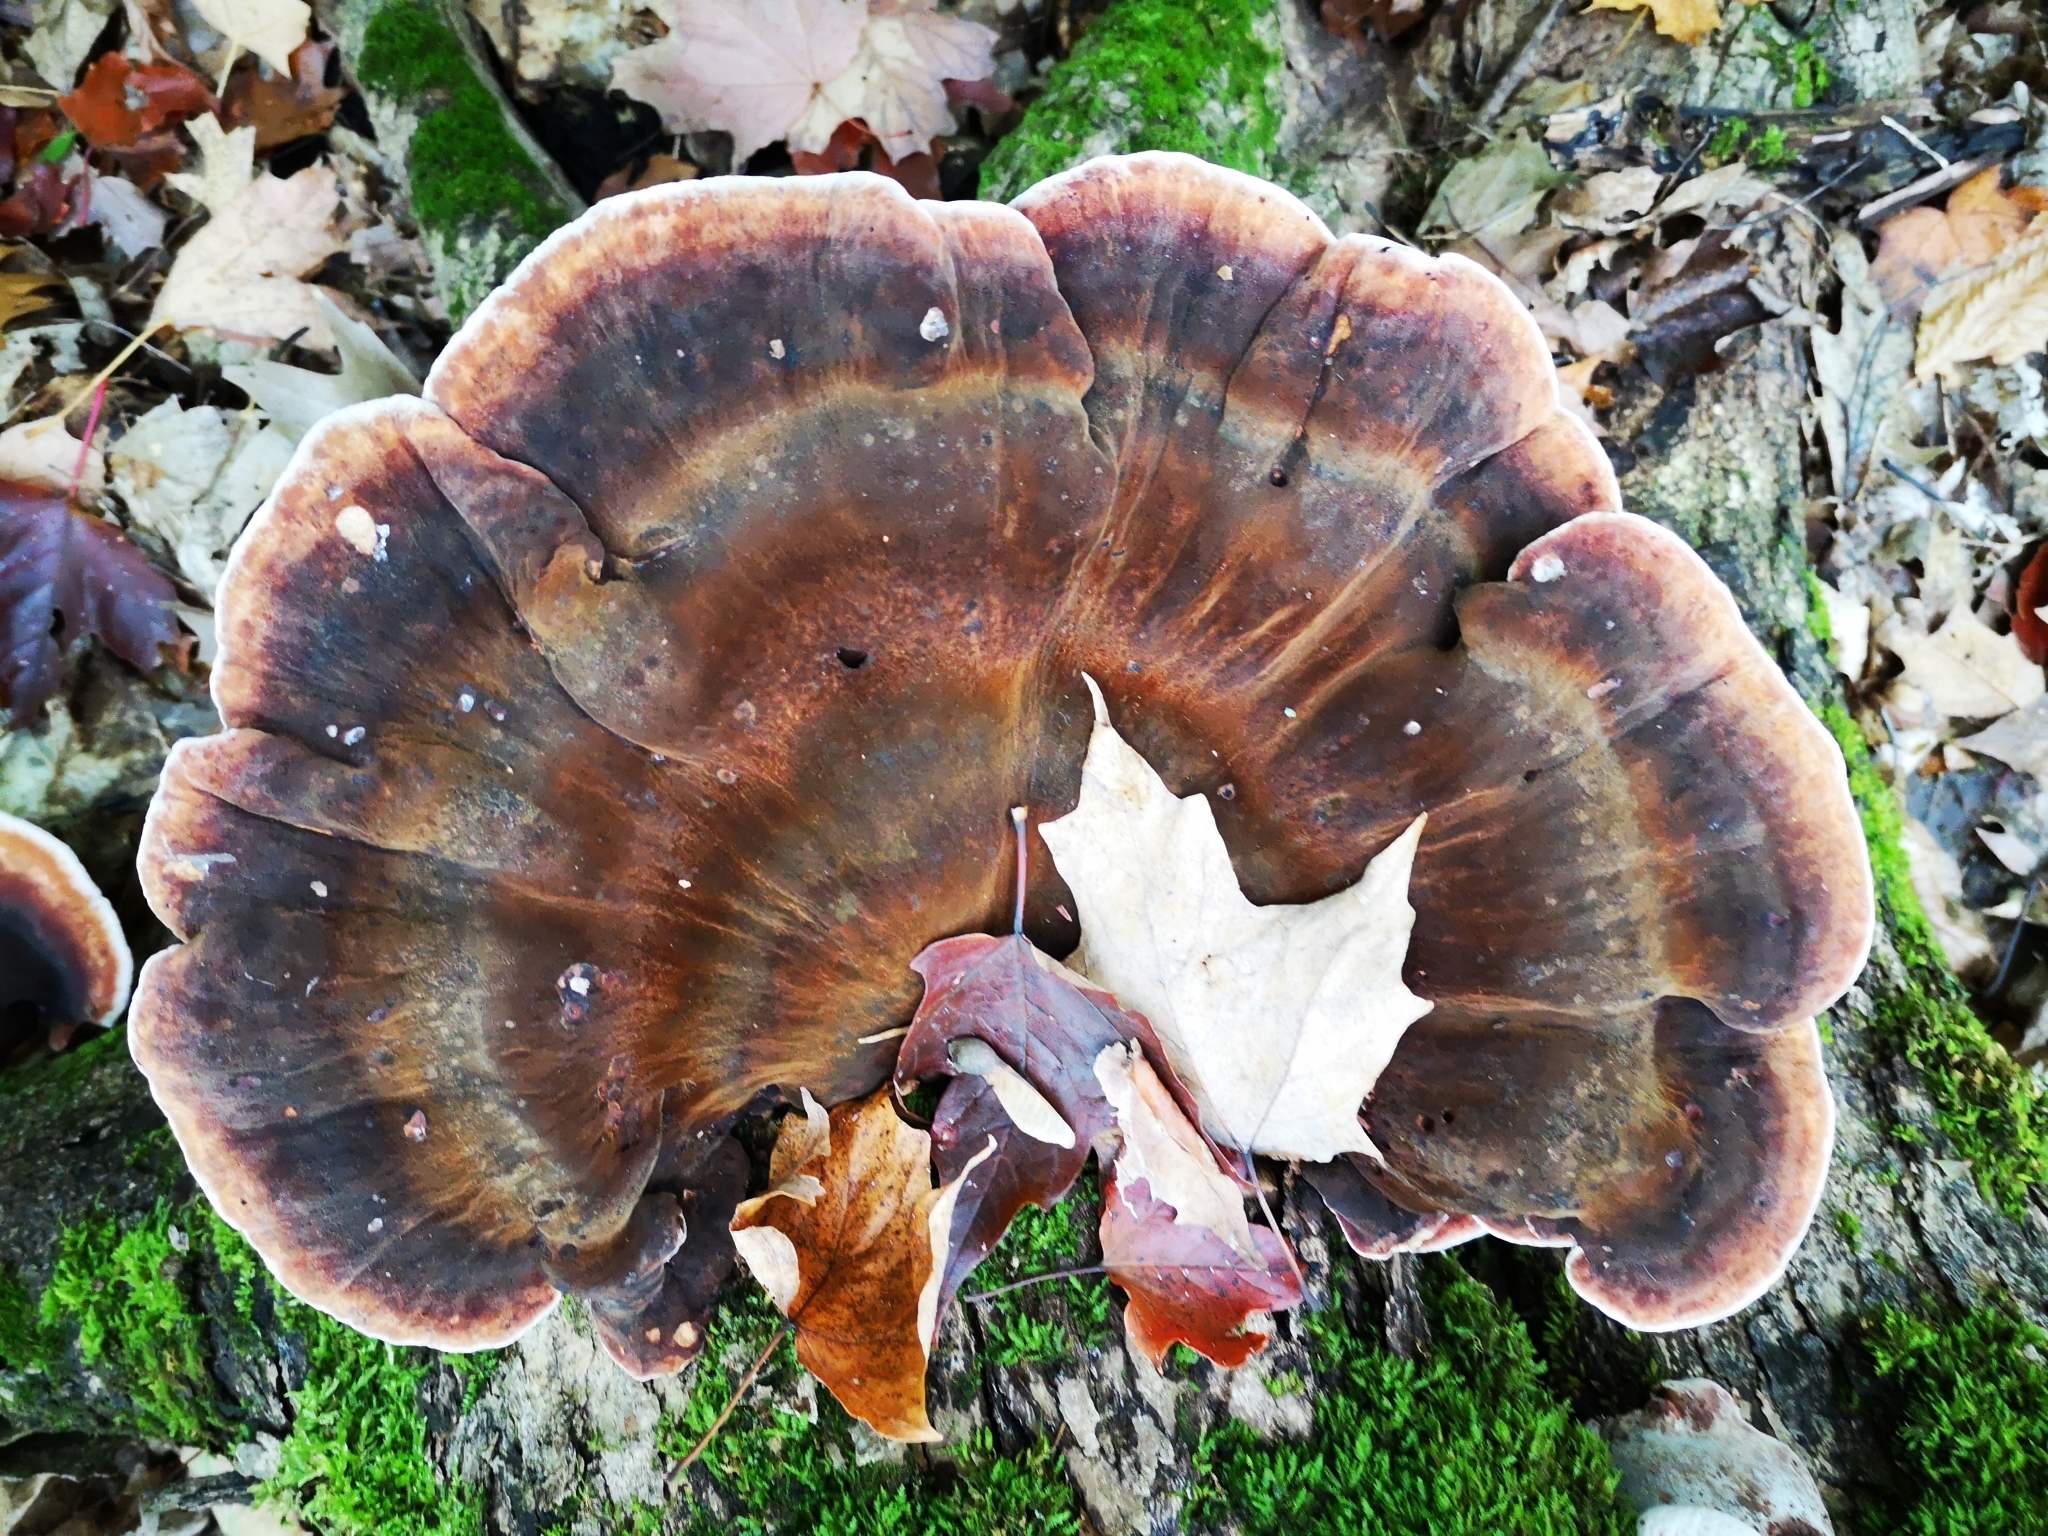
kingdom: Fungi
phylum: Basidiomycota
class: Agaricomycetes
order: Polyporales
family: Ischnodermataceae
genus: Ischnoderma
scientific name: Ischnoderma resinosum
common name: Resinous polypore
